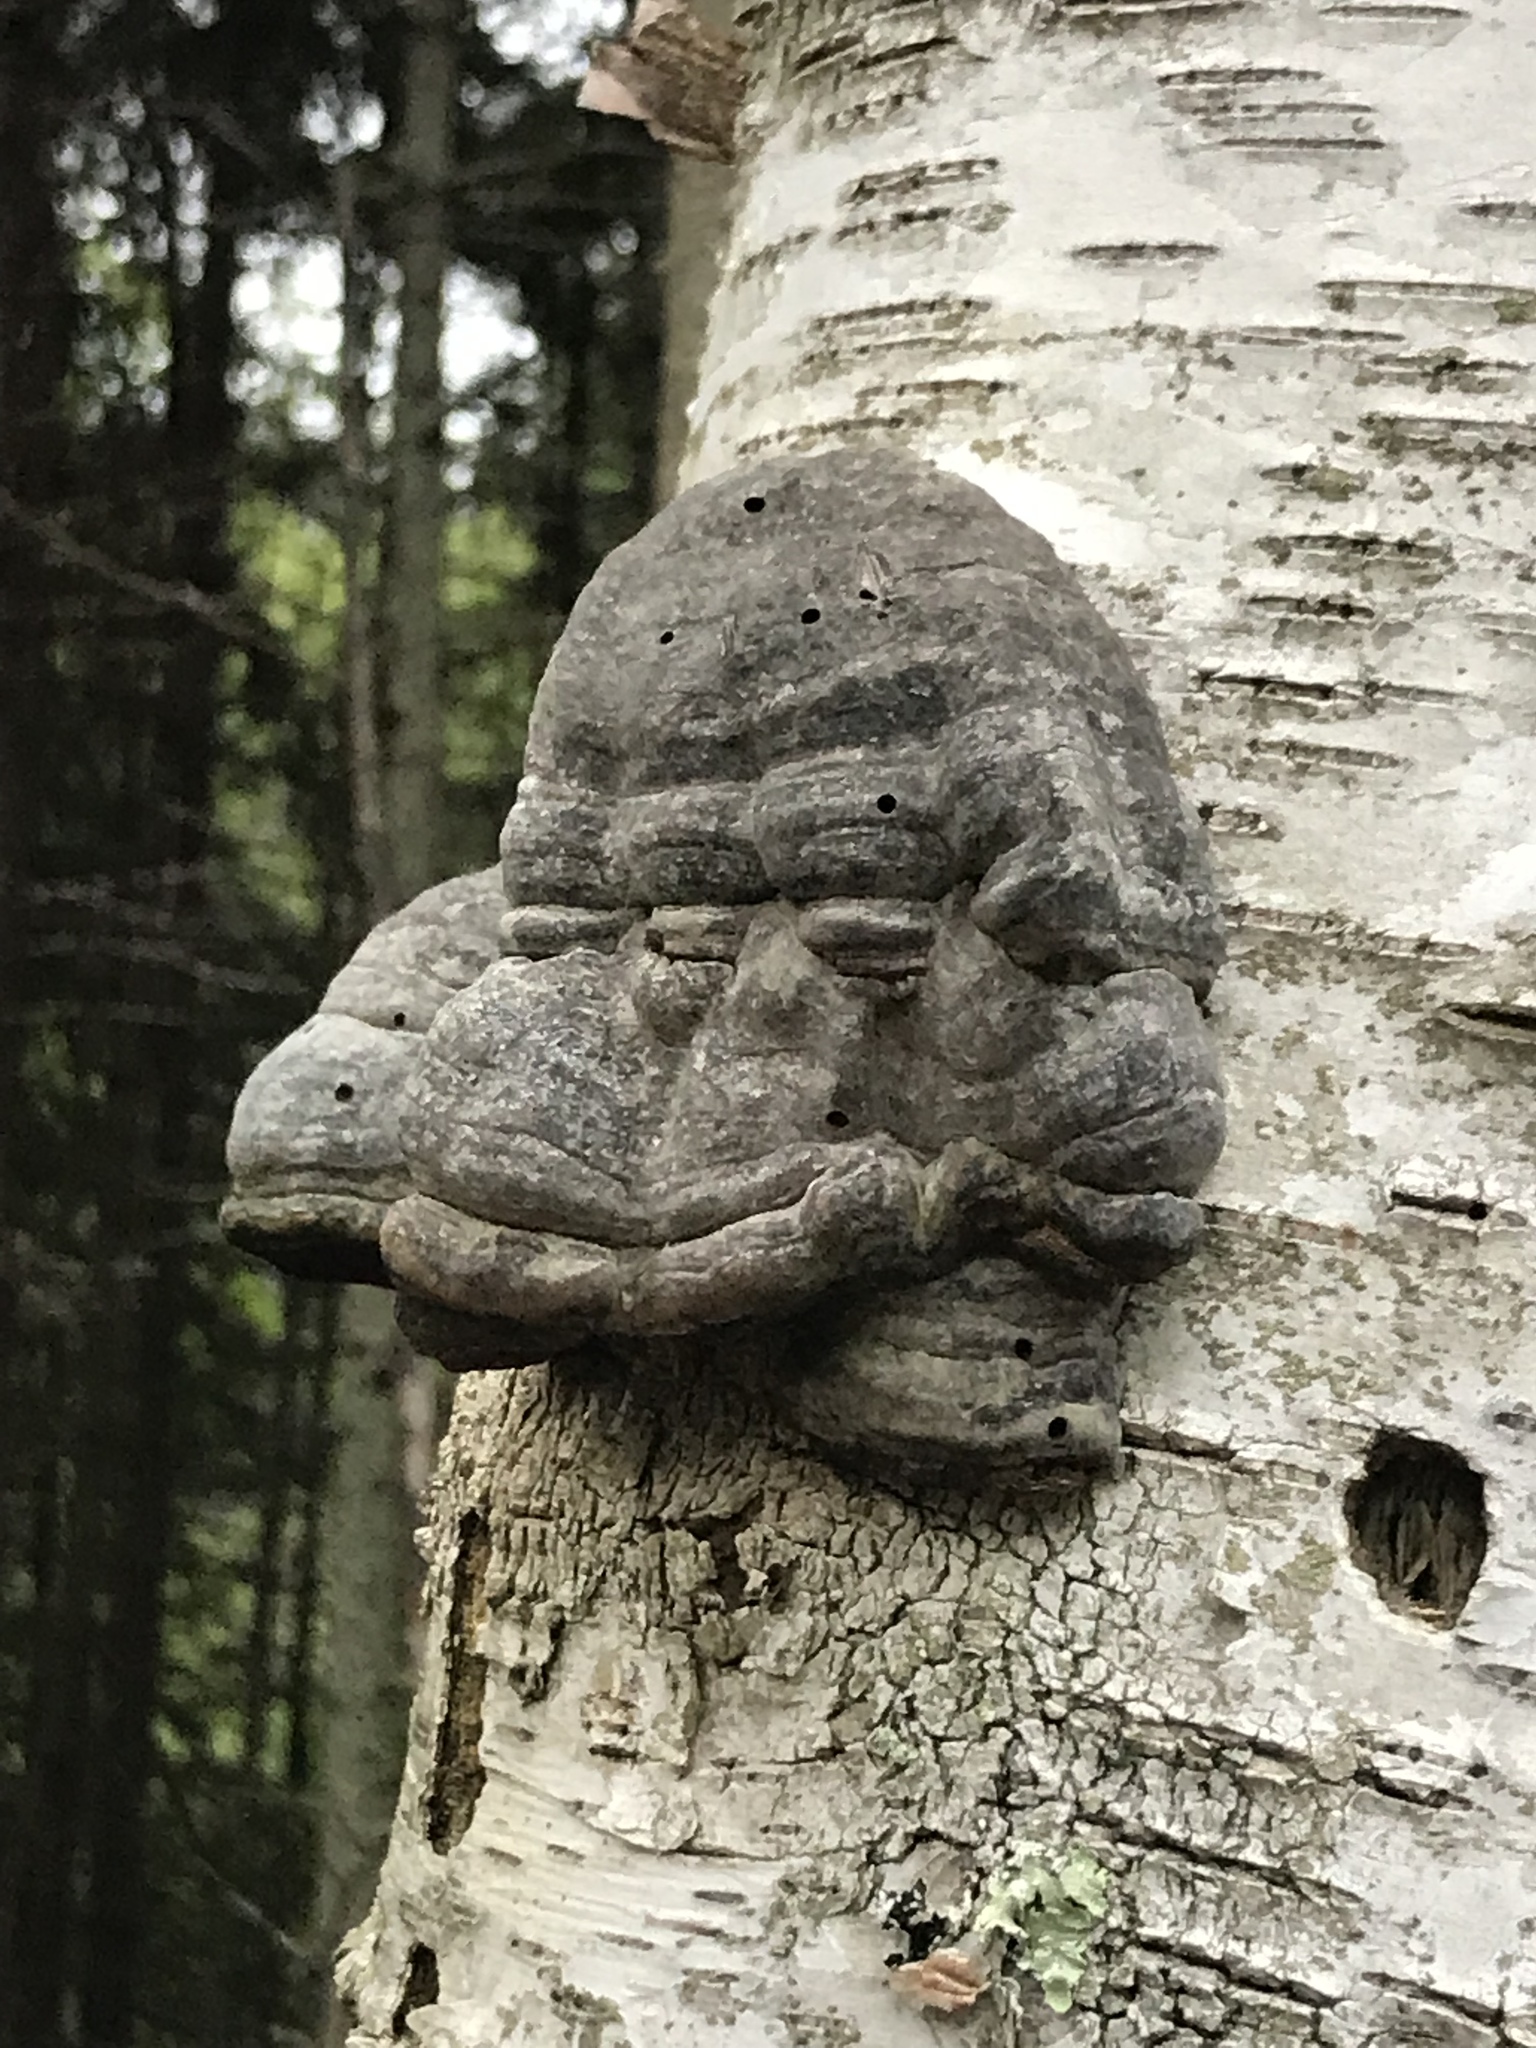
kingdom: Fungi
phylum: Basidiomycota
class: Agaricomycetes
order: Polyporales
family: Polyporaceae
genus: Fomes
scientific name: Fomes fomentarius
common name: Hoof fungus
